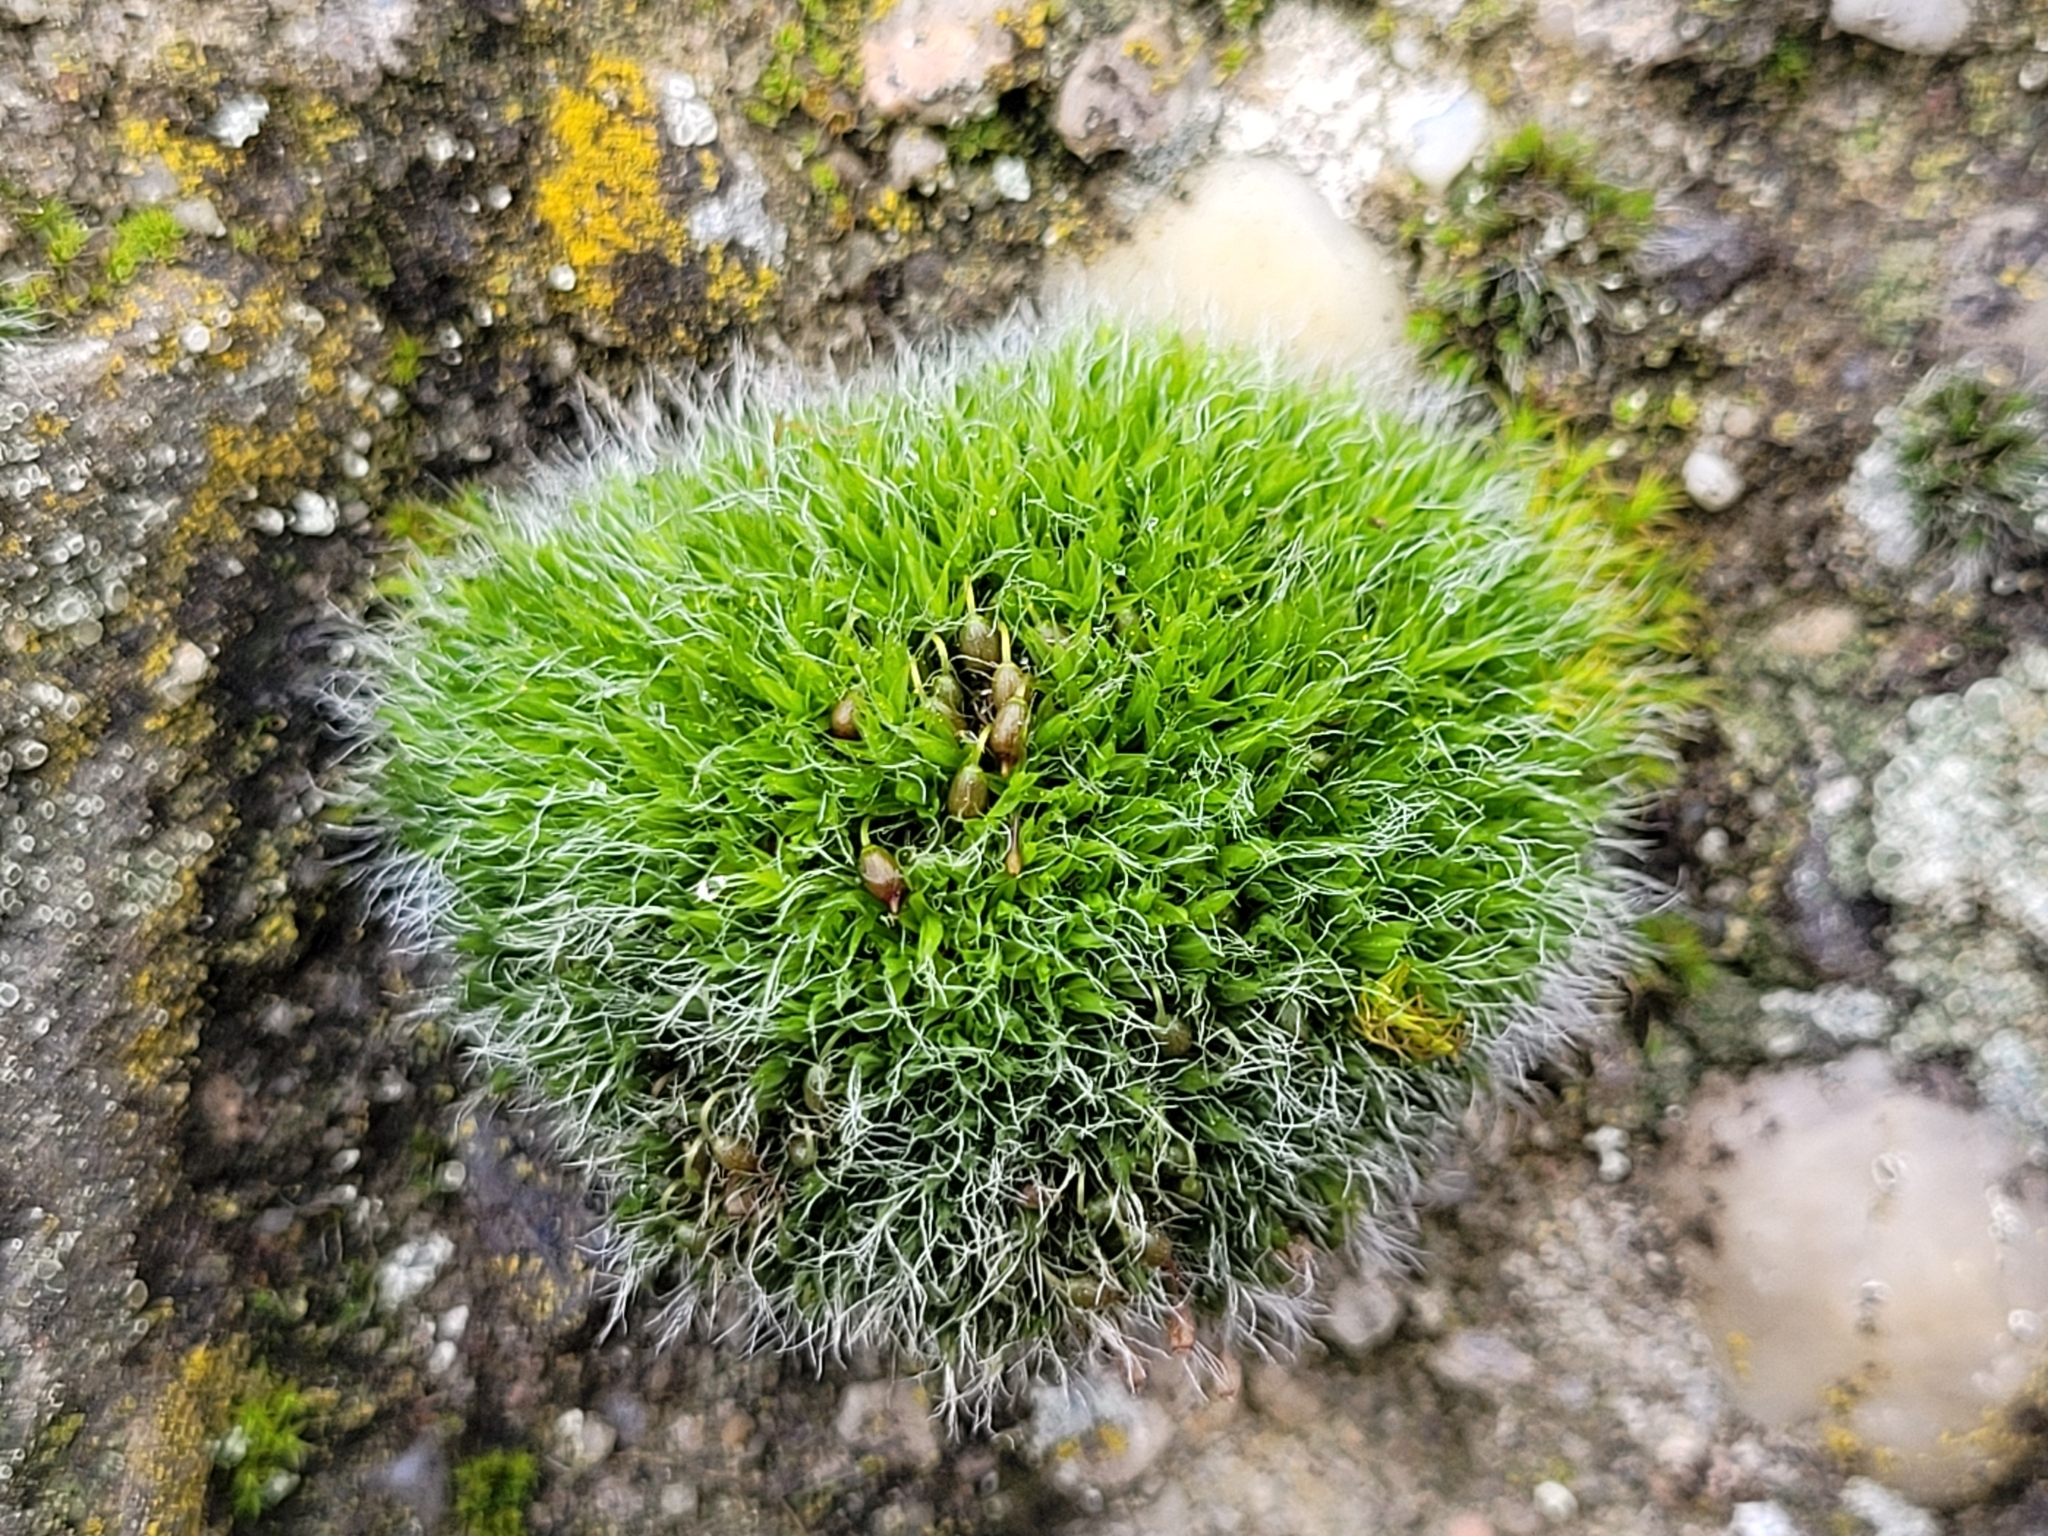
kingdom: Plantae
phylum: Bryophyta
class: Bryopsida
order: Grimmiales
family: Grimmiaceae
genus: Grimmia
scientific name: Grimmia pulvinata
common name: Grey-cushioned grimmia
